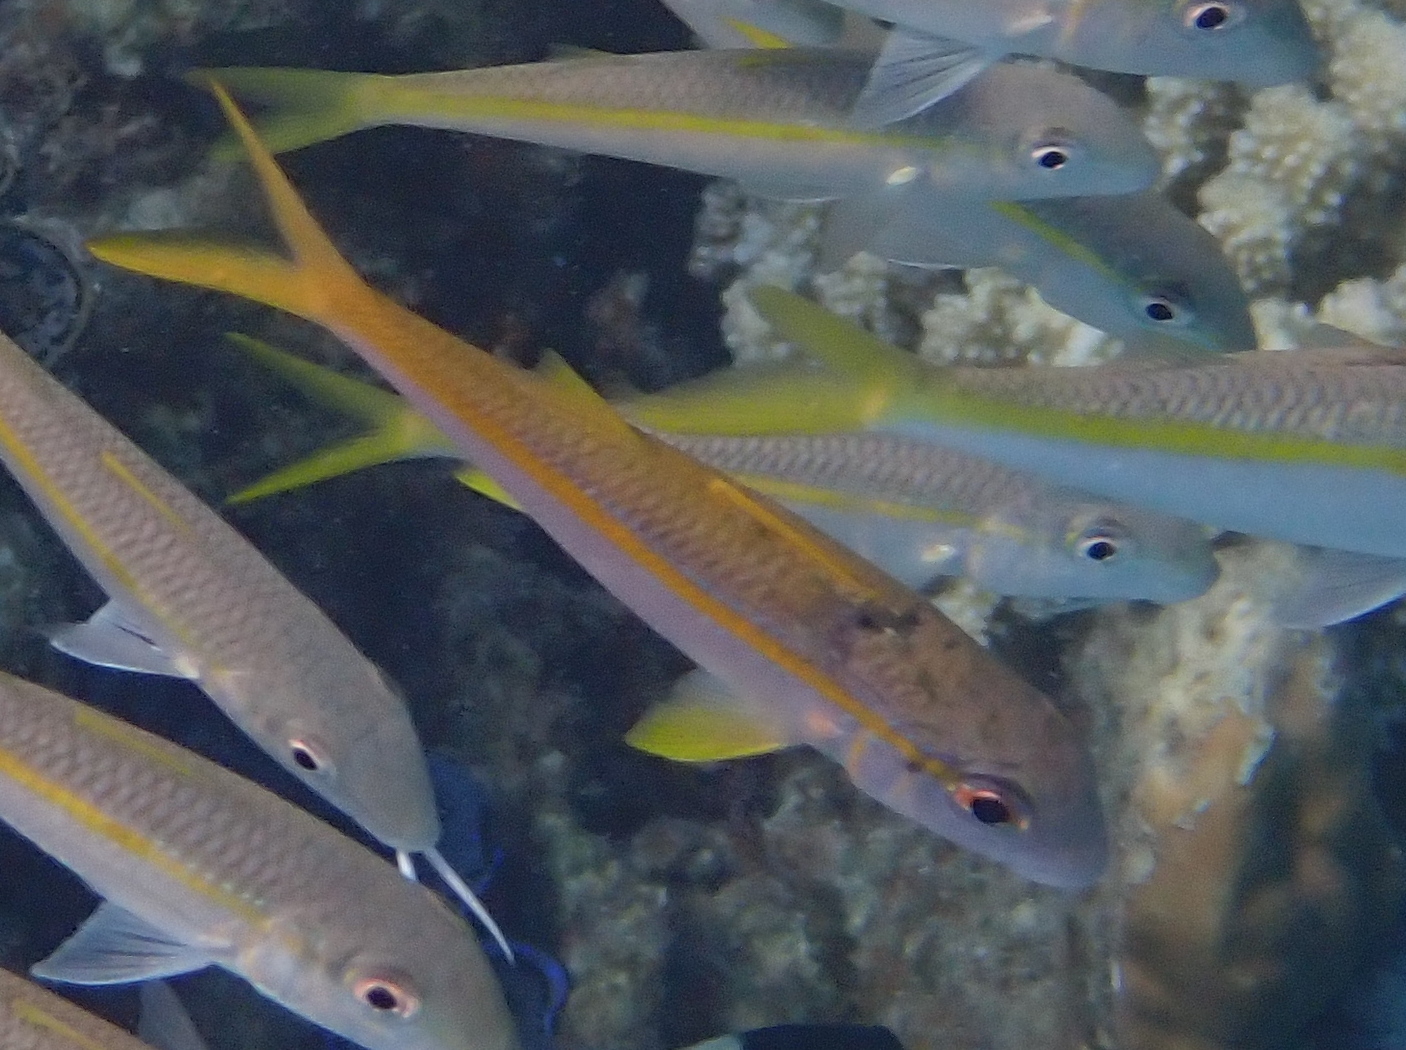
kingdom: Animalia
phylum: Chordata
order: Perciformes
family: Mullidae
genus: Mulloidichthys
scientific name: Mulloidichthys vanicolensis
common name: Yellowfin goatfish
